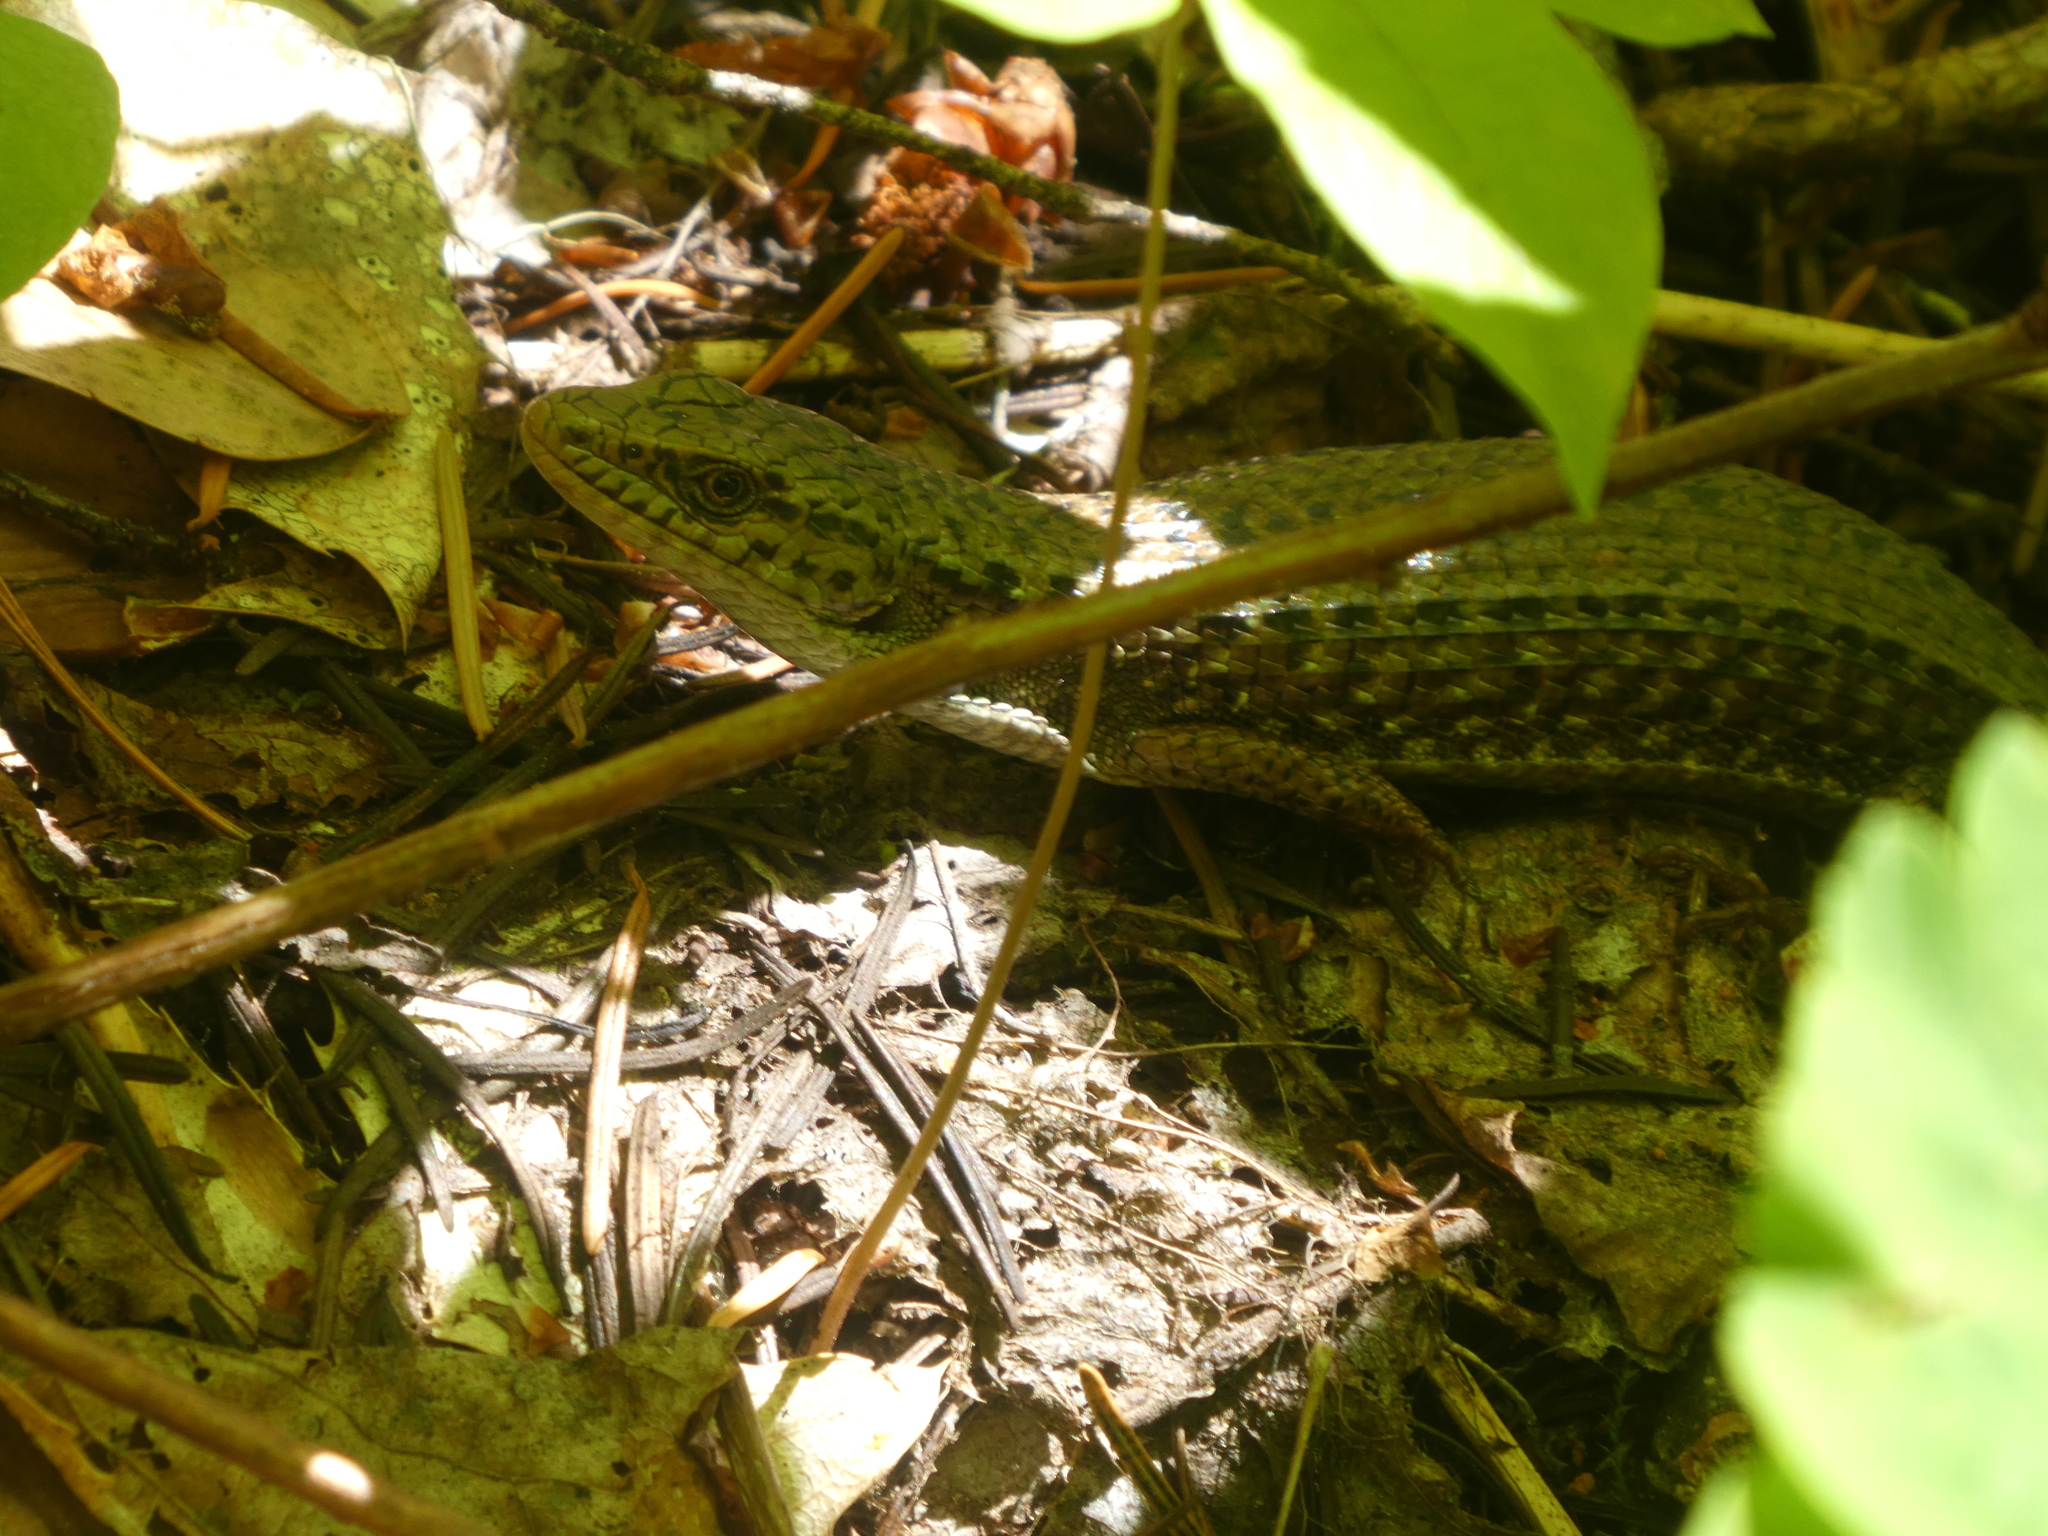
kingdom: Animalia
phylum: Chordata
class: Squamata
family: Anguidae
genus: Elgaria
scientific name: Elgaria coerulea
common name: Northern alligator lizard
